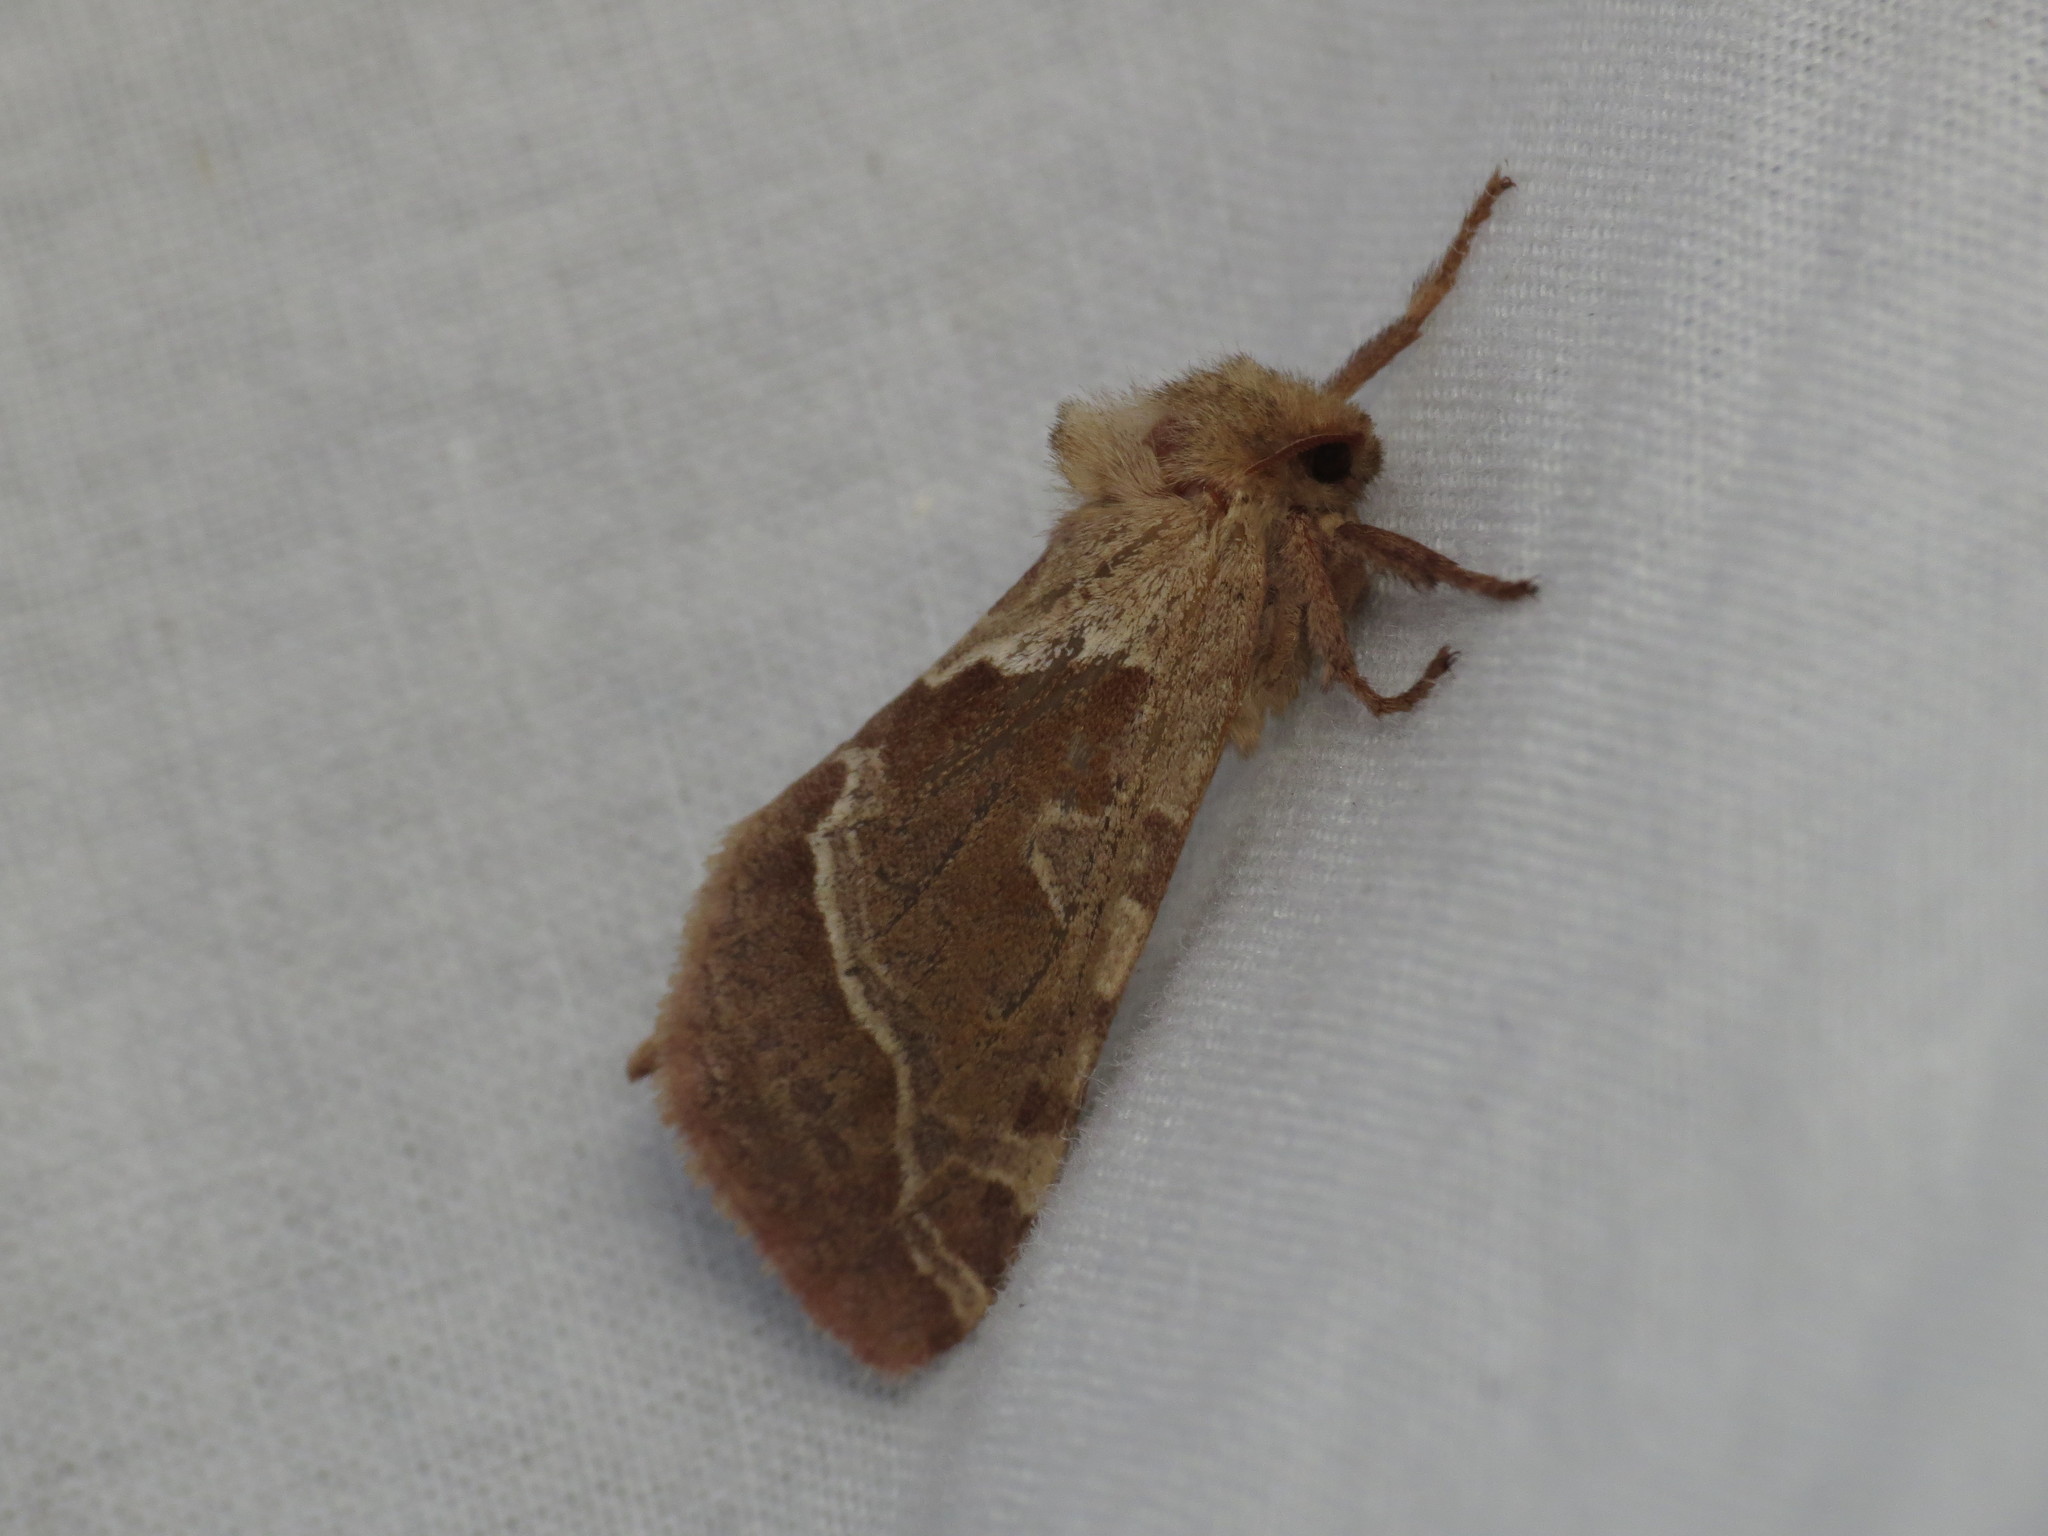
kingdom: Animalia
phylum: Arthropoda
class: Insecta
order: Lepidoptera
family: Hepialidae
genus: Triodia
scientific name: Triodia sylvina
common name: Orange swift
